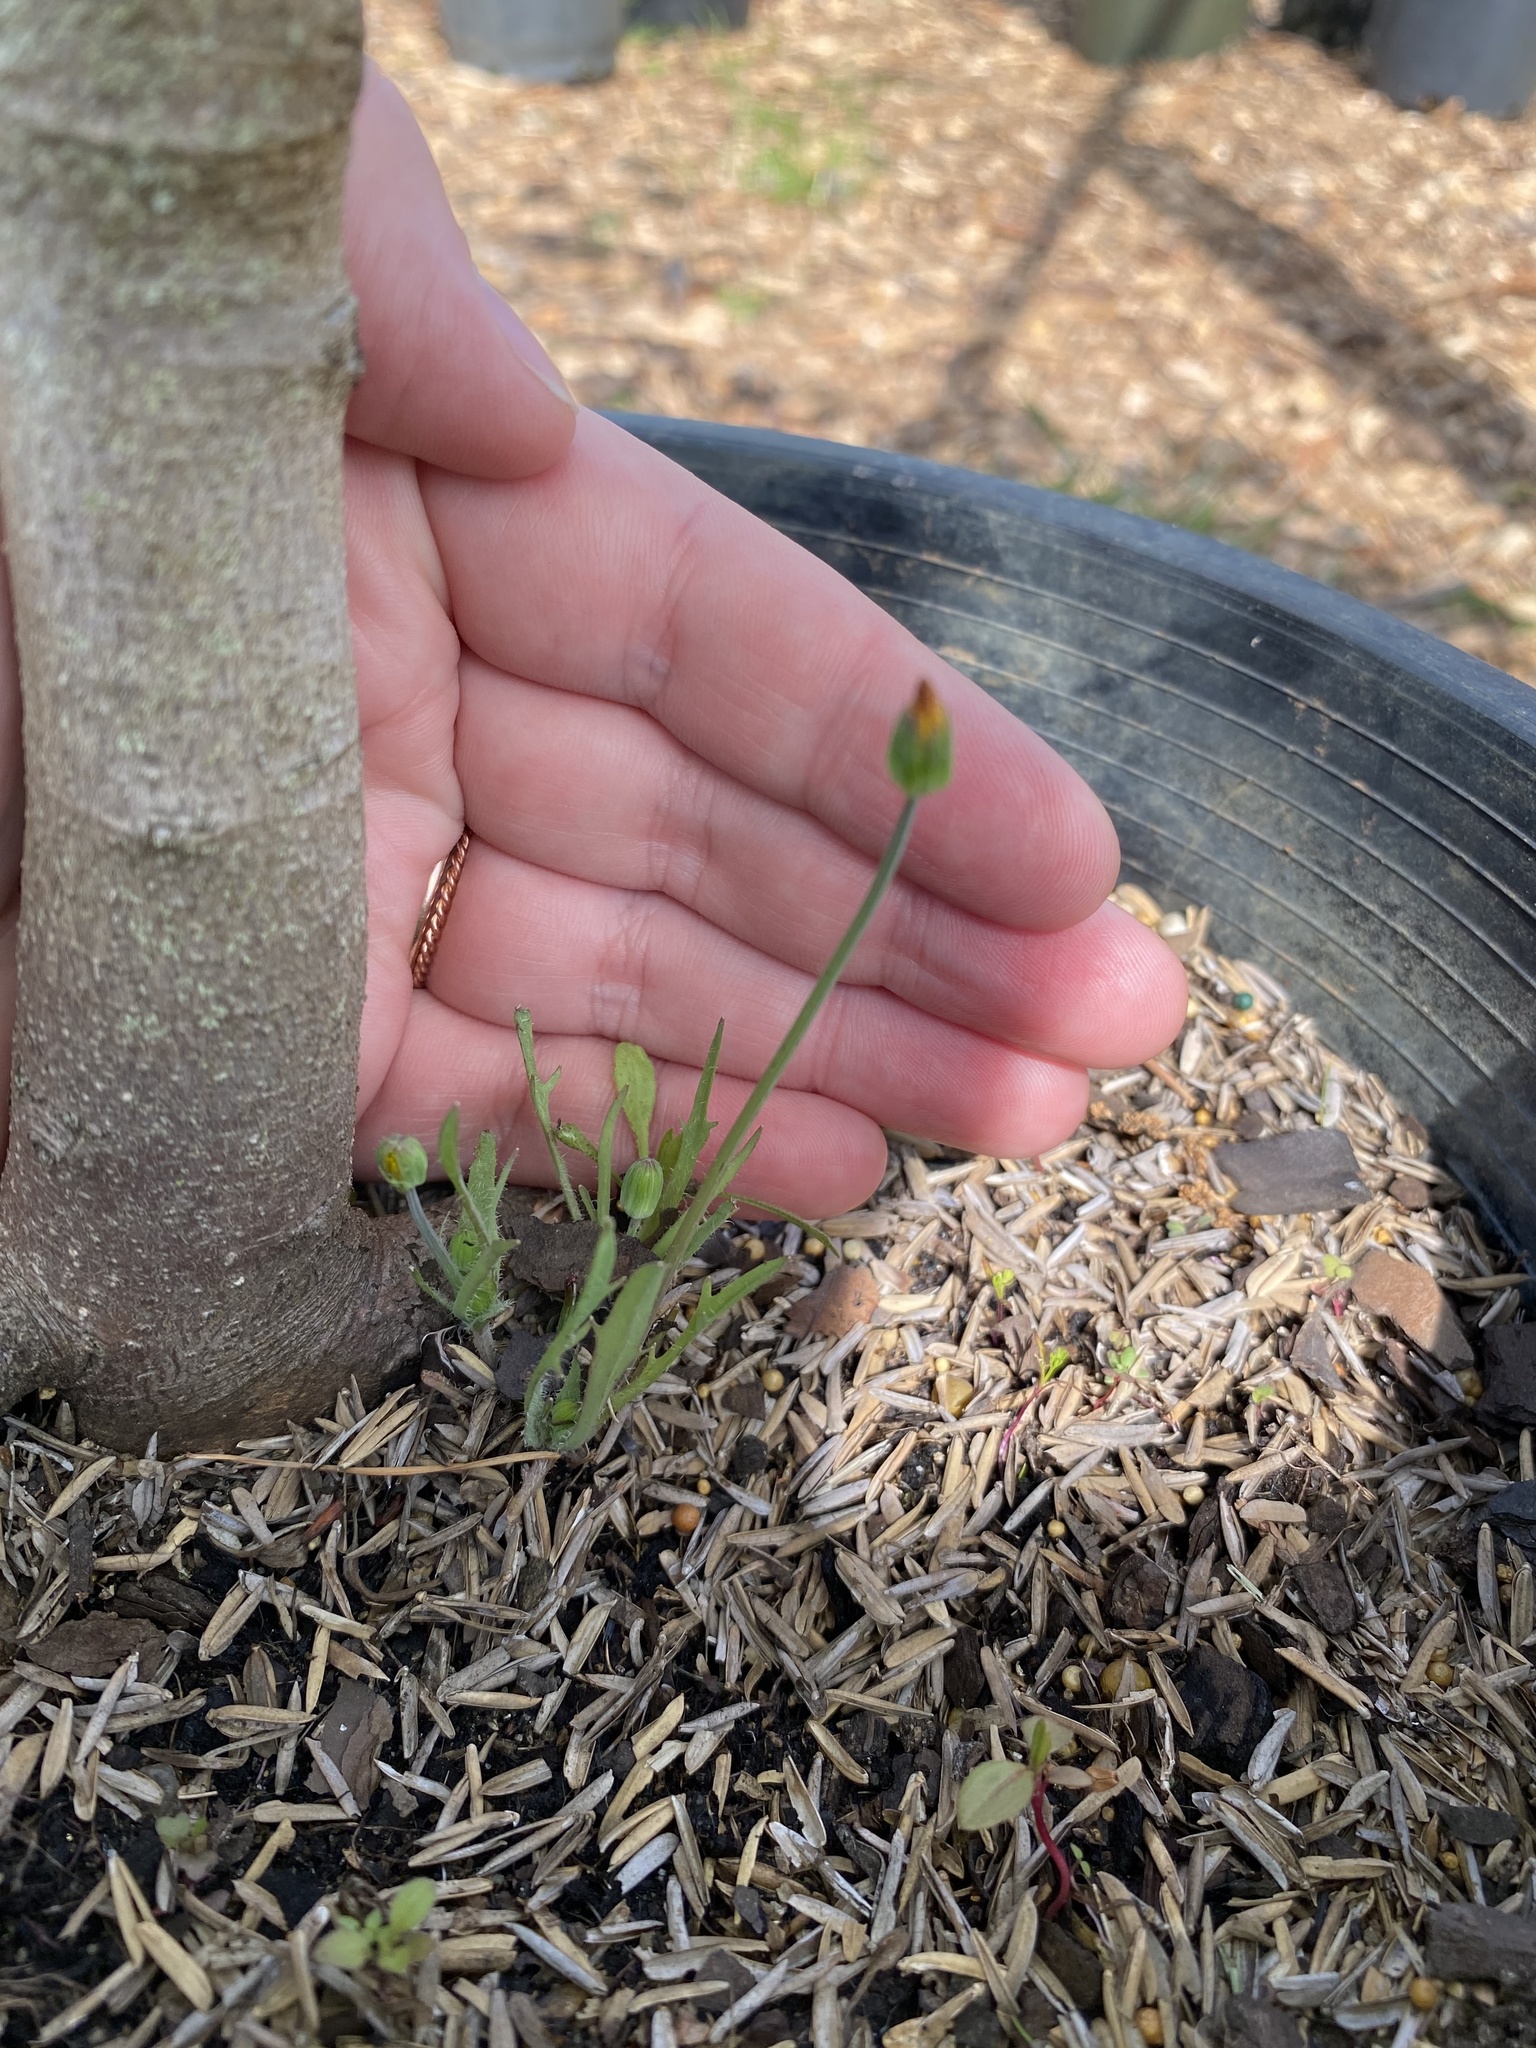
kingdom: Plantae
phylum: Tracheophyta
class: Magnoliopsida
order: Asterales
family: Asteraceae
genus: Krigia
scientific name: Krigia virginica
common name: Virginia dwarf-dandelion
